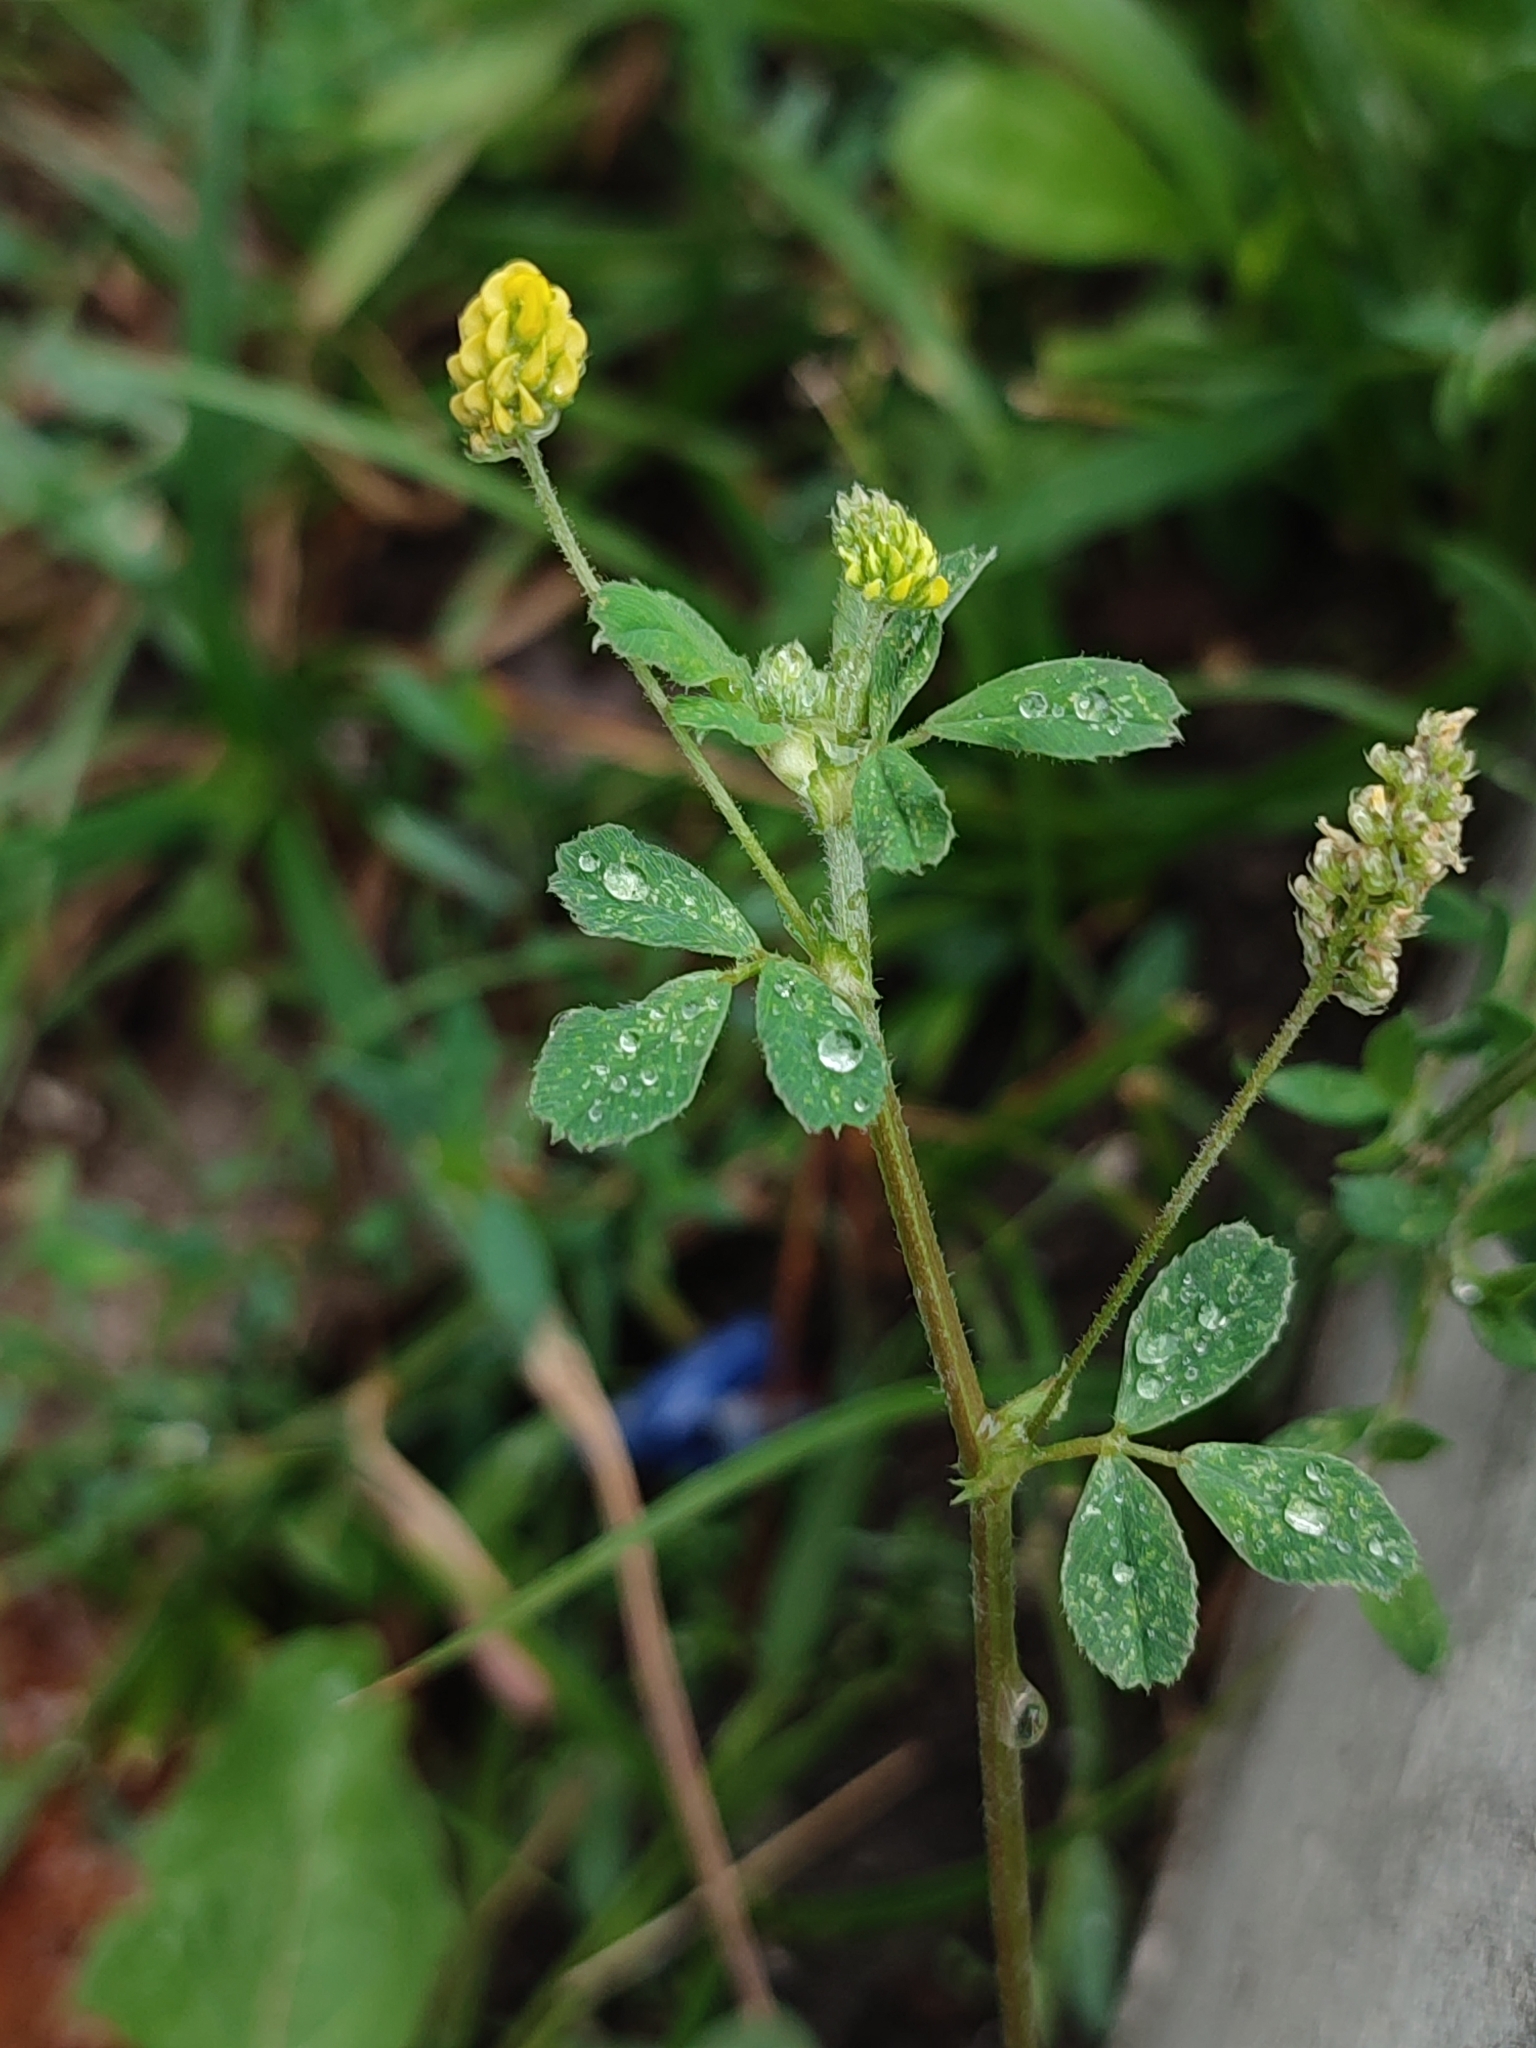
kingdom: Plantae
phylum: Tracheophyta
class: Magnoliopsida
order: Fabales
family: Fabaceae
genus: Medicago
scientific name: Medicago lupulina
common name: Black medick
